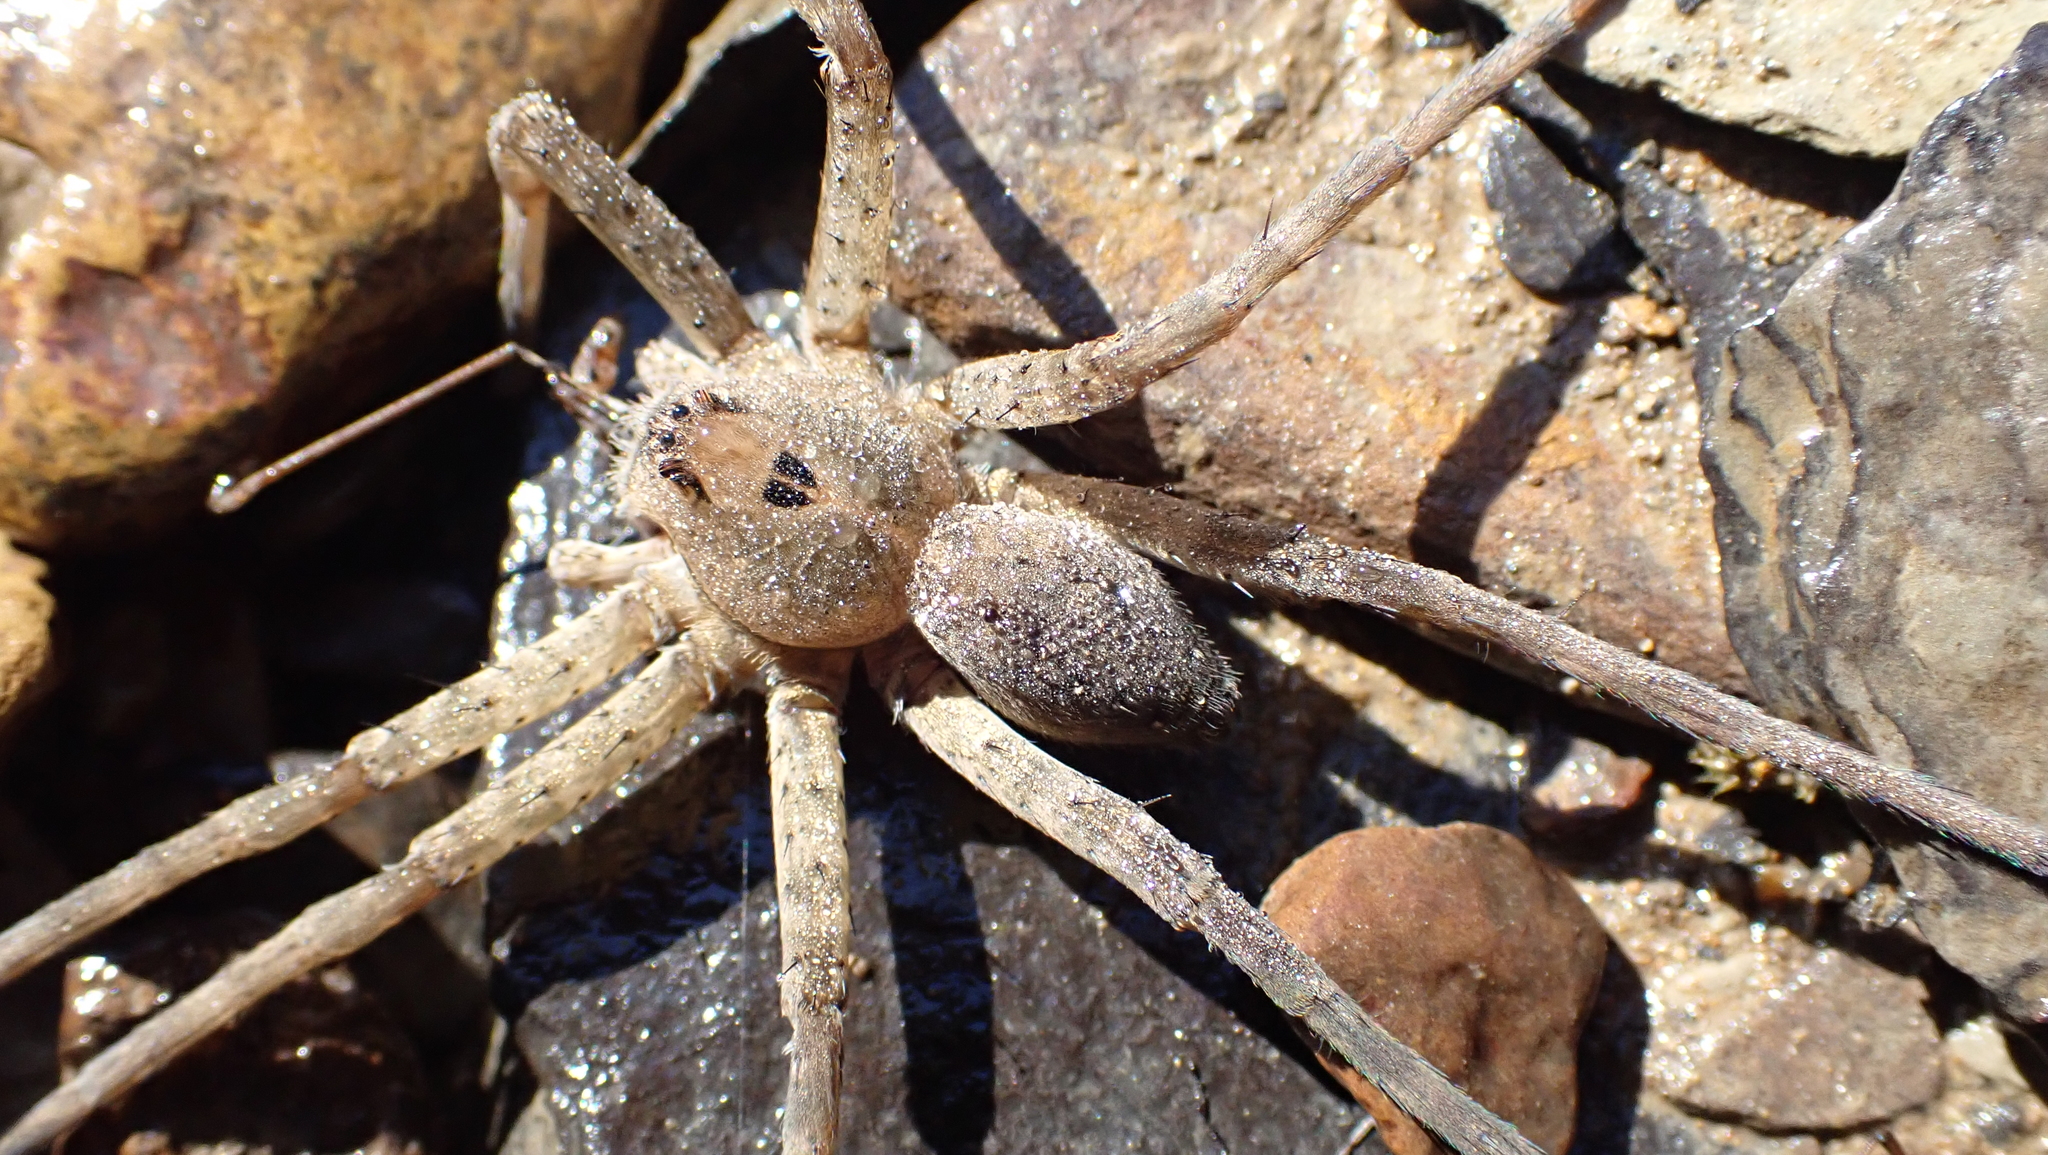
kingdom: Animalia
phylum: Arthropoda
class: Arachnida
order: Araneae
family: Pisauridae
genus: Dolomedes
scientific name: Dolomedes vittatus
